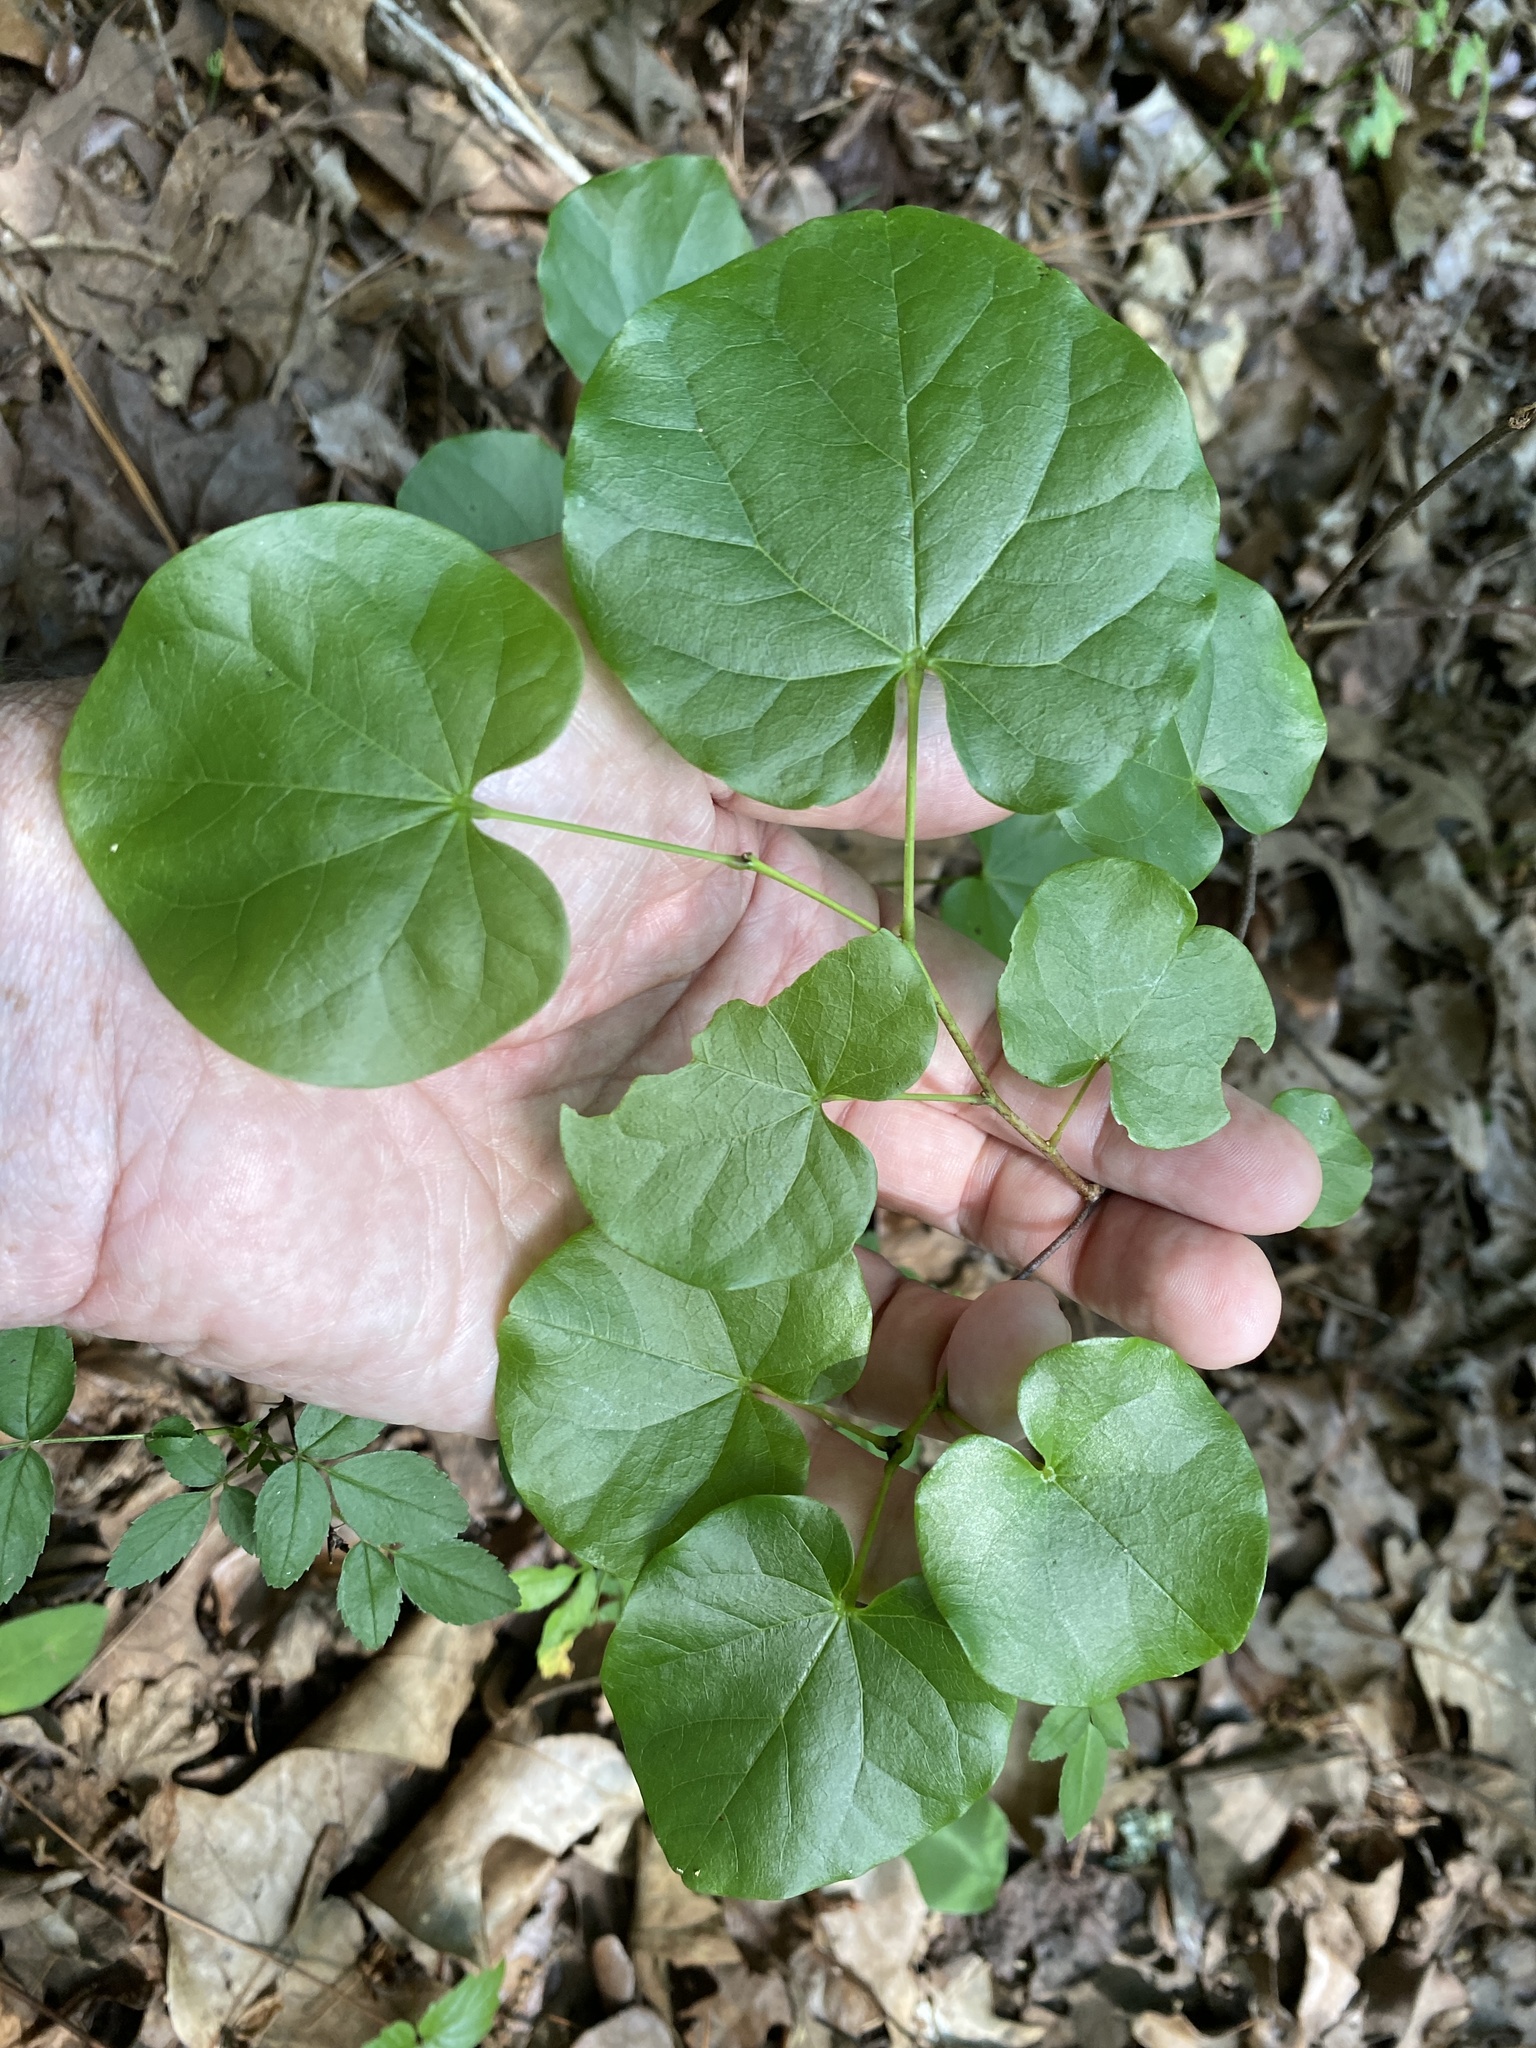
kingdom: Plantae
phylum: Tracheophyta
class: Magnoliopsida
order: Fabales
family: Fabaceae
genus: Cercis
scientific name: Cercis canadensis
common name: Eastern redbud
